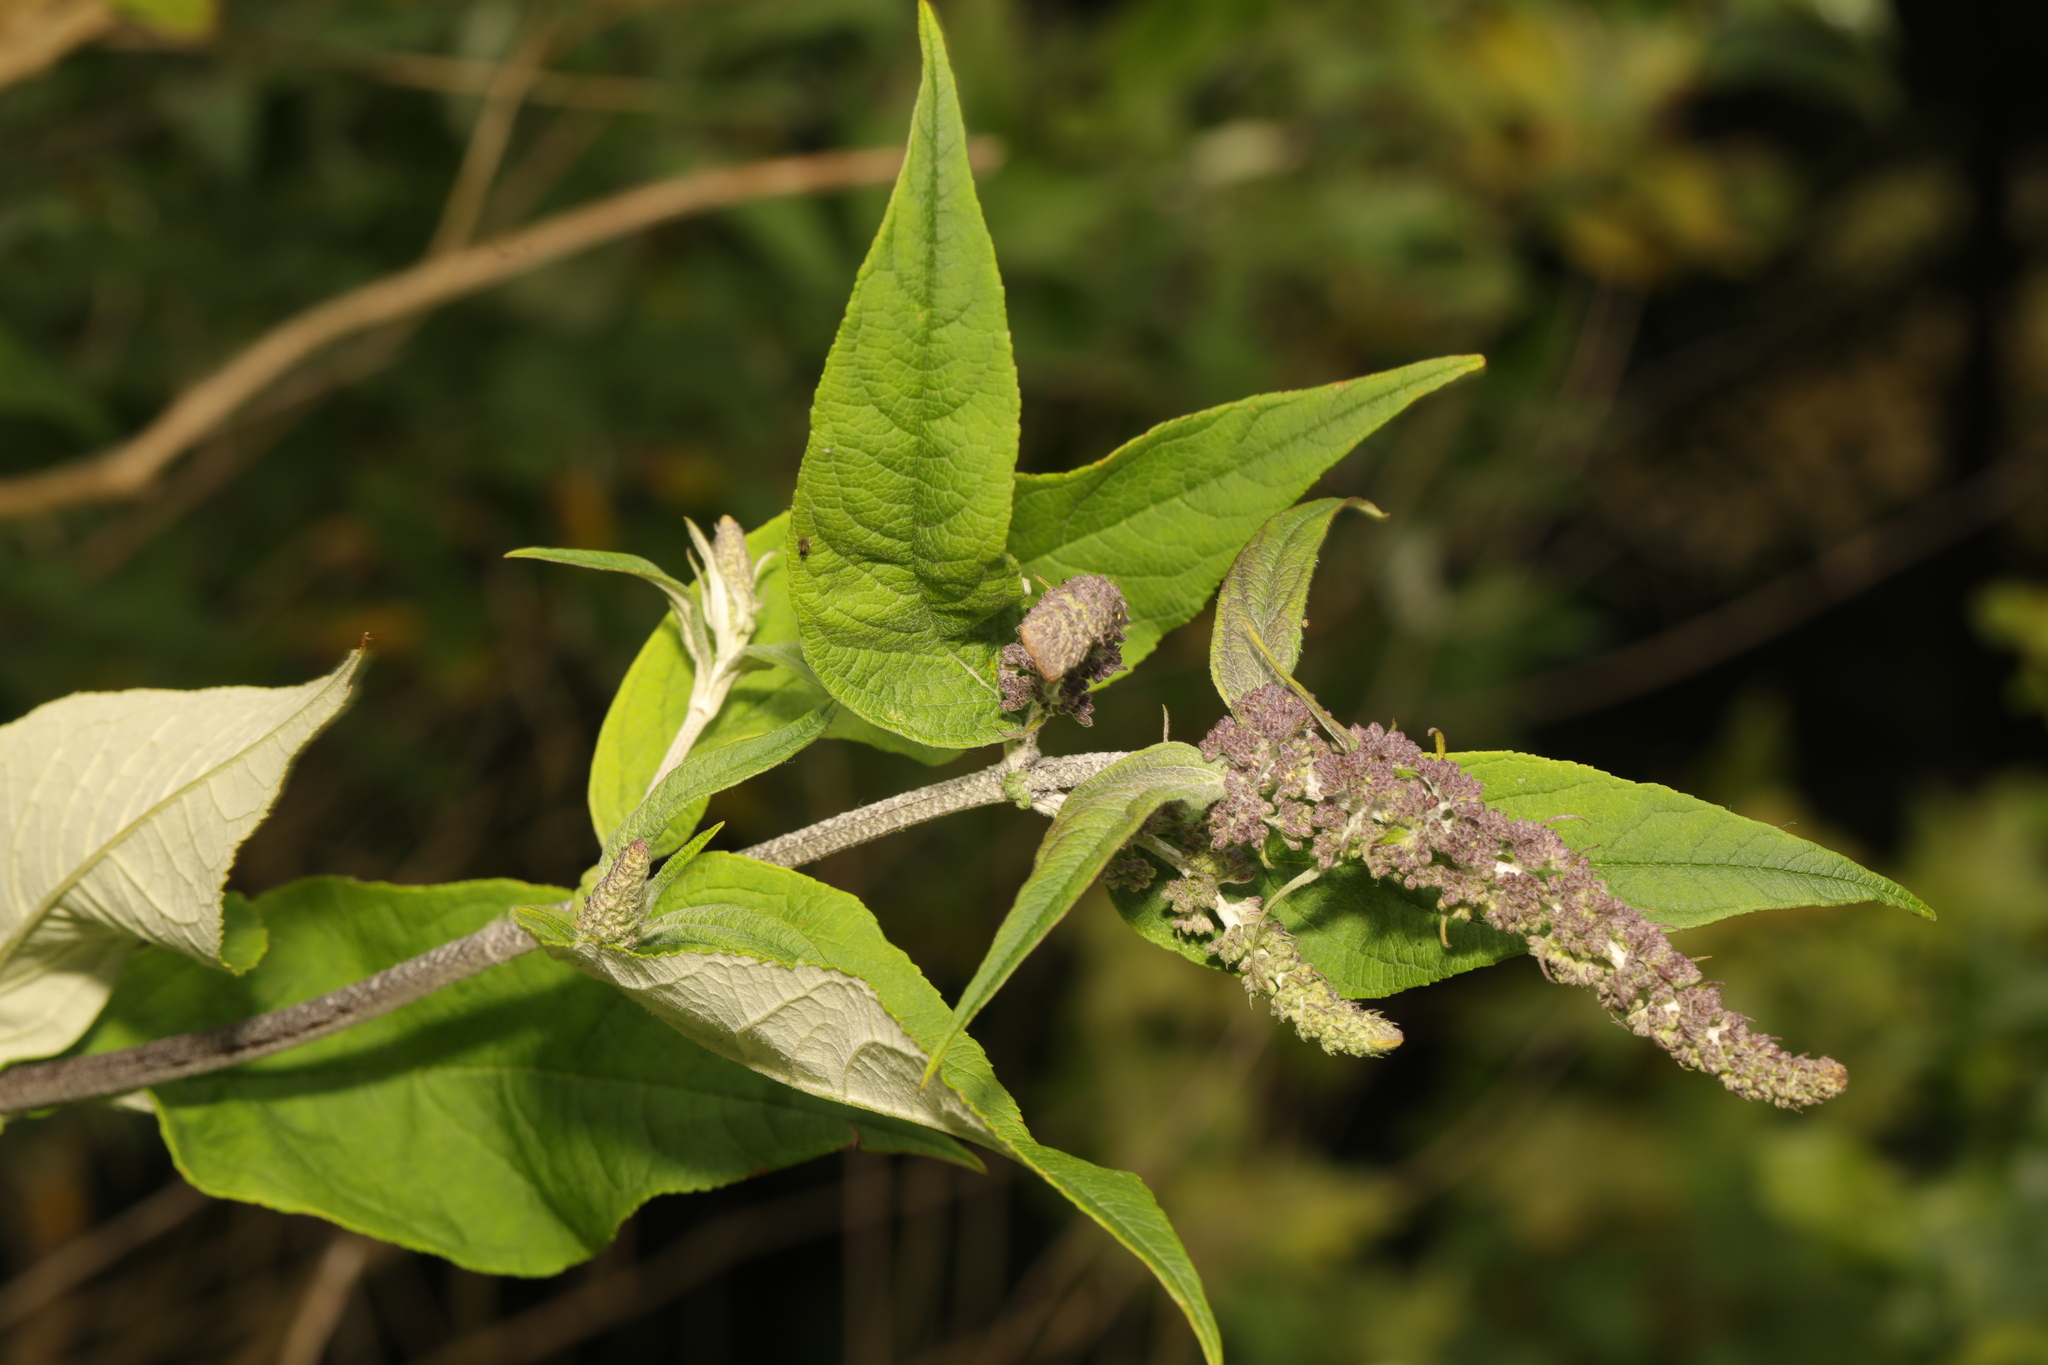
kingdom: Plantae
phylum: Tracheophyta
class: Magnoliopsida
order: Lamiales
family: Scrophulariaceae
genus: Buddleja
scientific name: Buddleja davidii
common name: Butterfly-bush
